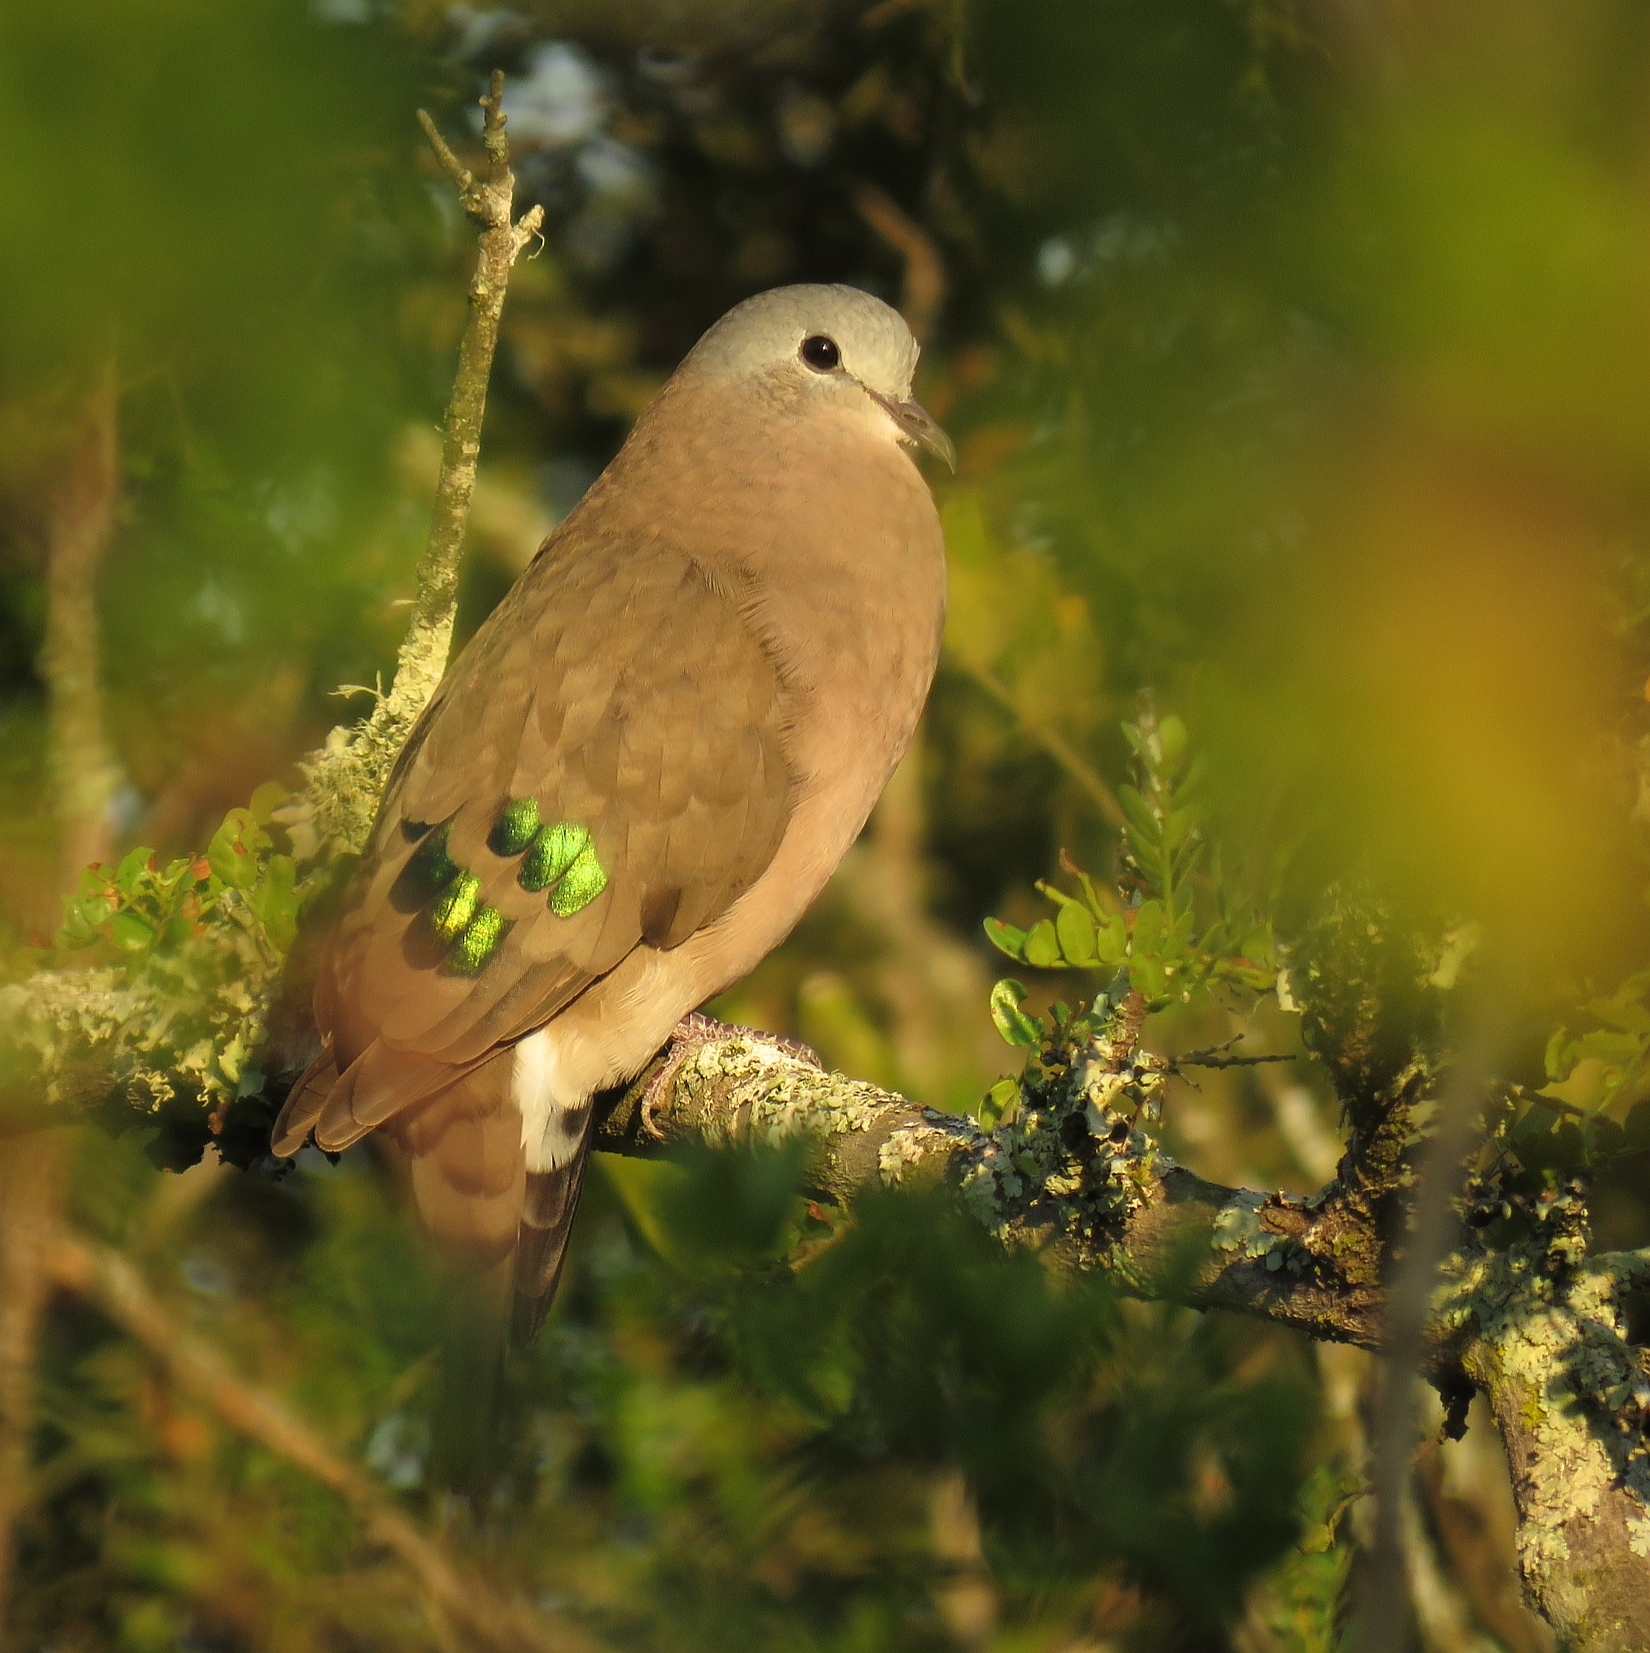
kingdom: Animalia
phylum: Chordata
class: Aves
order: Columbiformes
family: Columbidae
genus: Turtur
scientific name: Turtur chalcospilos
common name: Emerald-spotted wood dove
